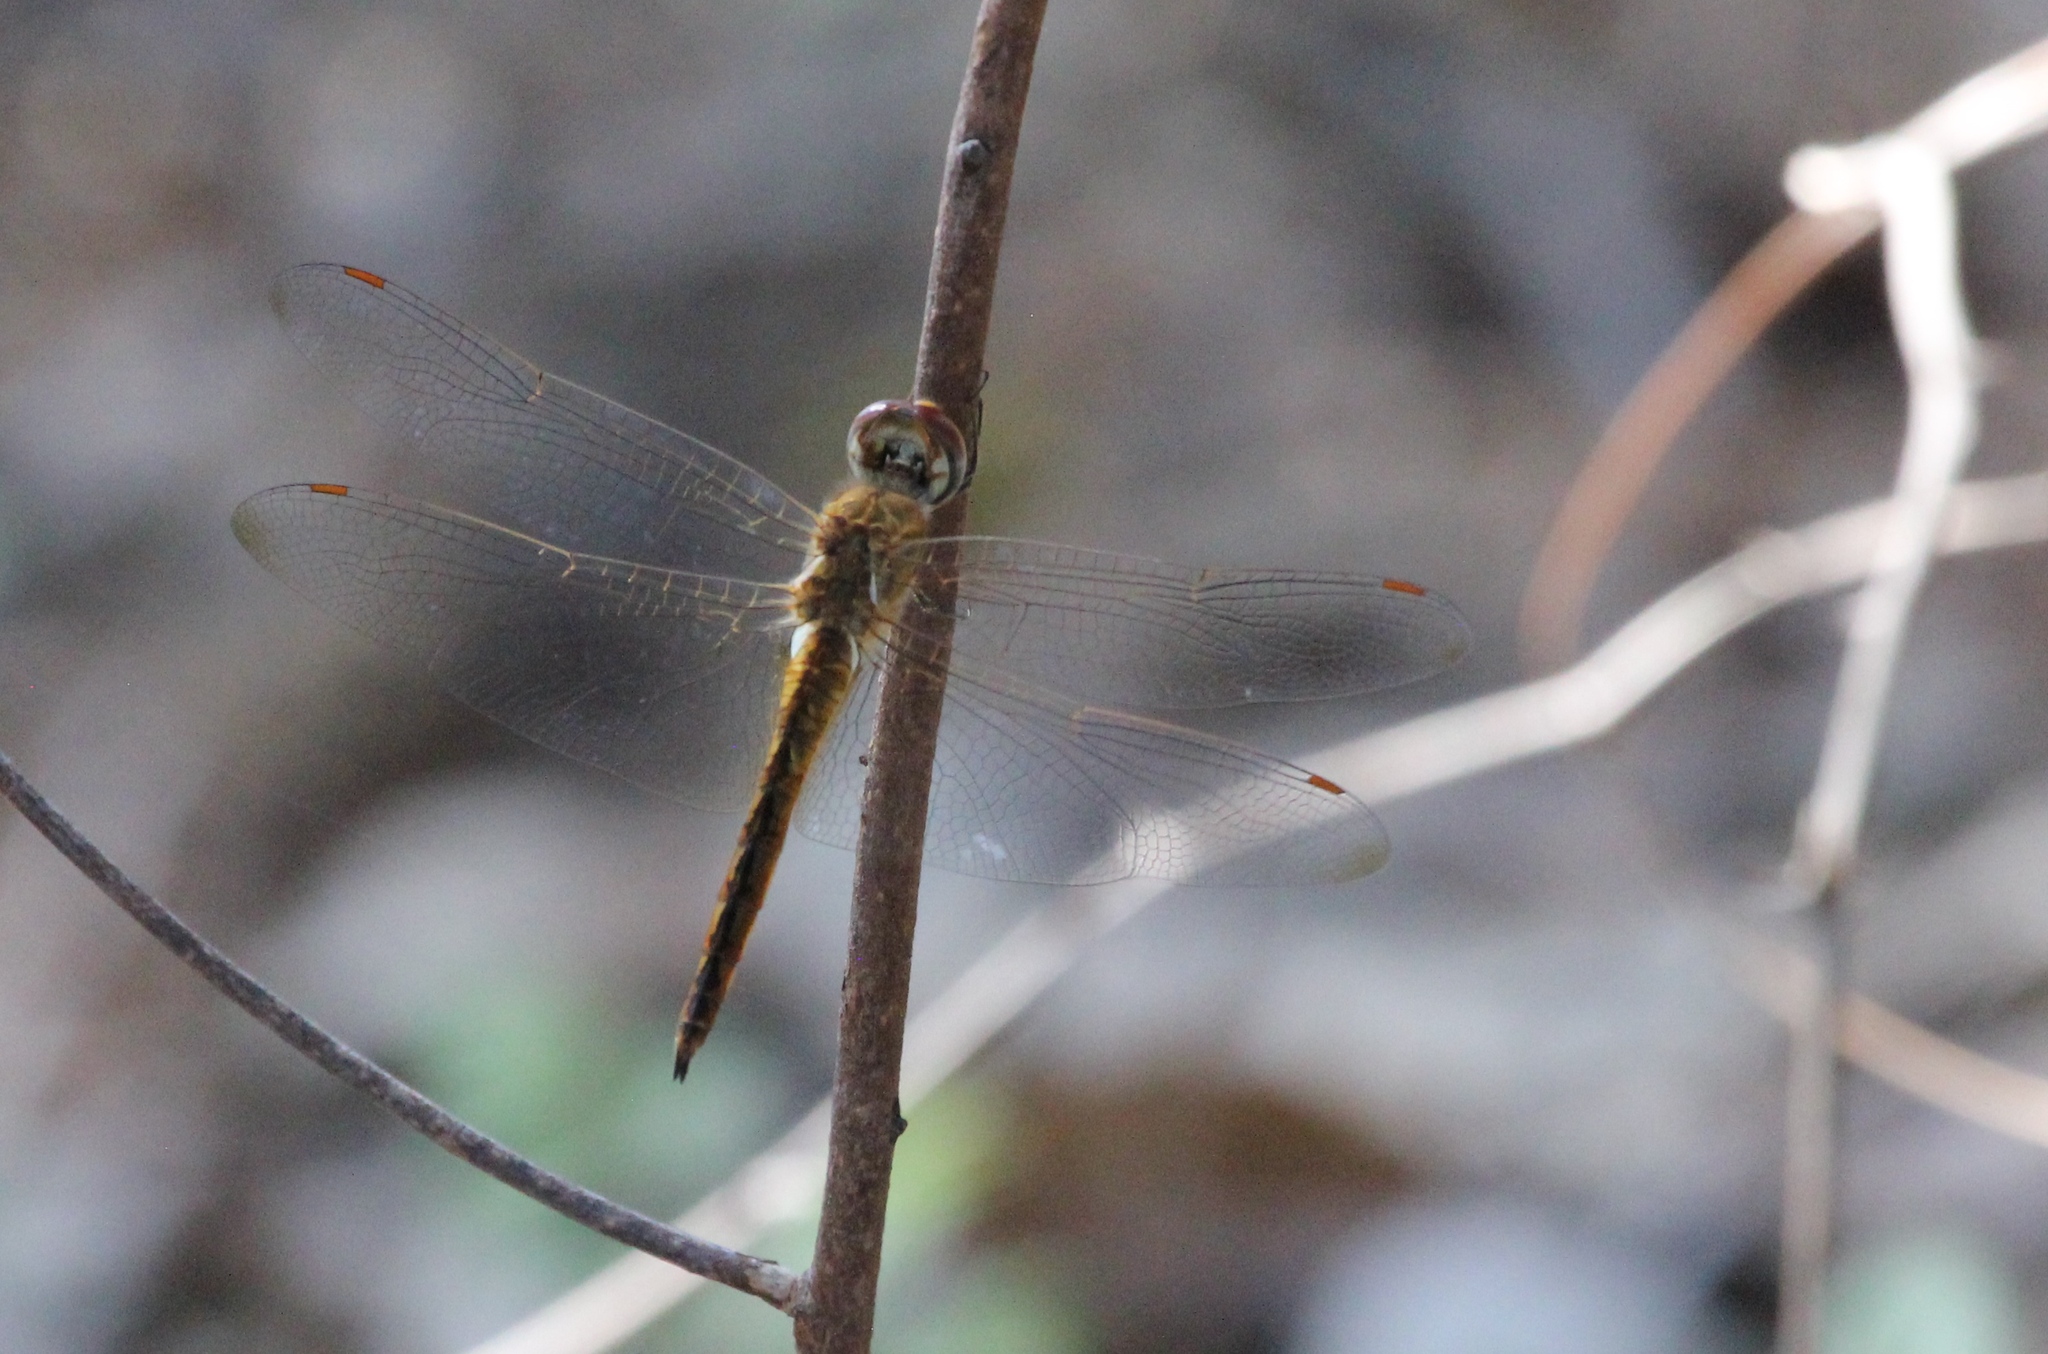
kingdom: Animalia
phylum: Arthropoda
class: Insecta
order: Odonata
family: Libellulidae
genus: Pantala
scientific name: Pantala flavescens
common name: Wandering glider
